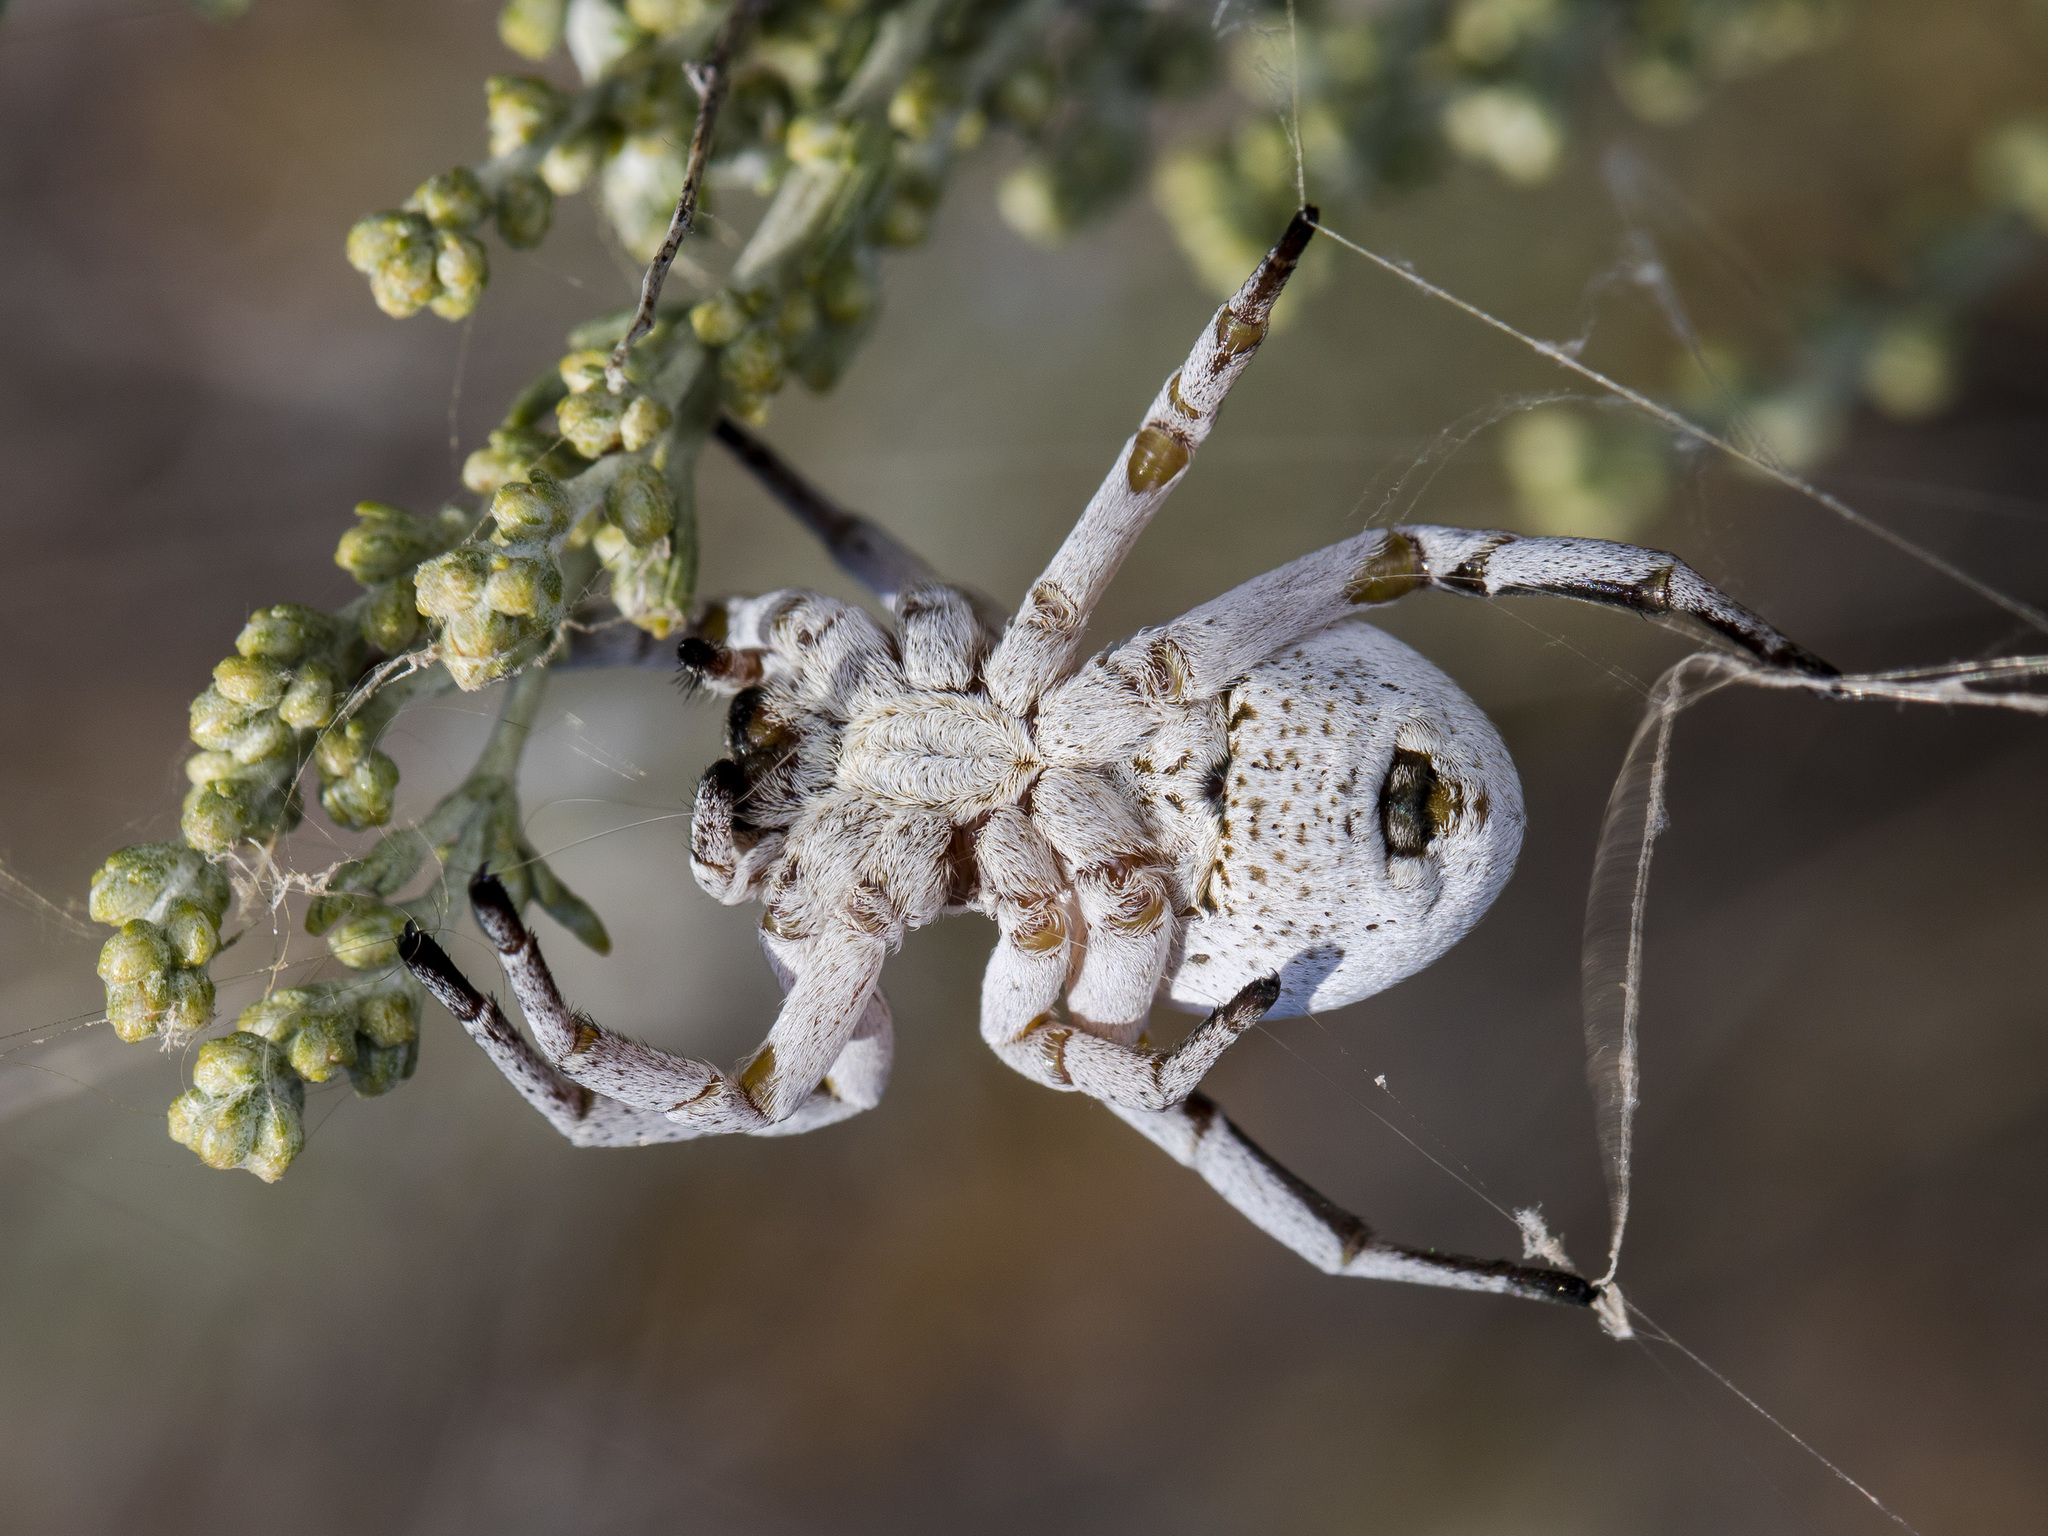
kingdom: Animalia
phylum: Arthropoda
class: Arachnida
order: Araneae
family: Eresidae
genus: Stegodyphus
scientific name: Stegodyphus lineatus
